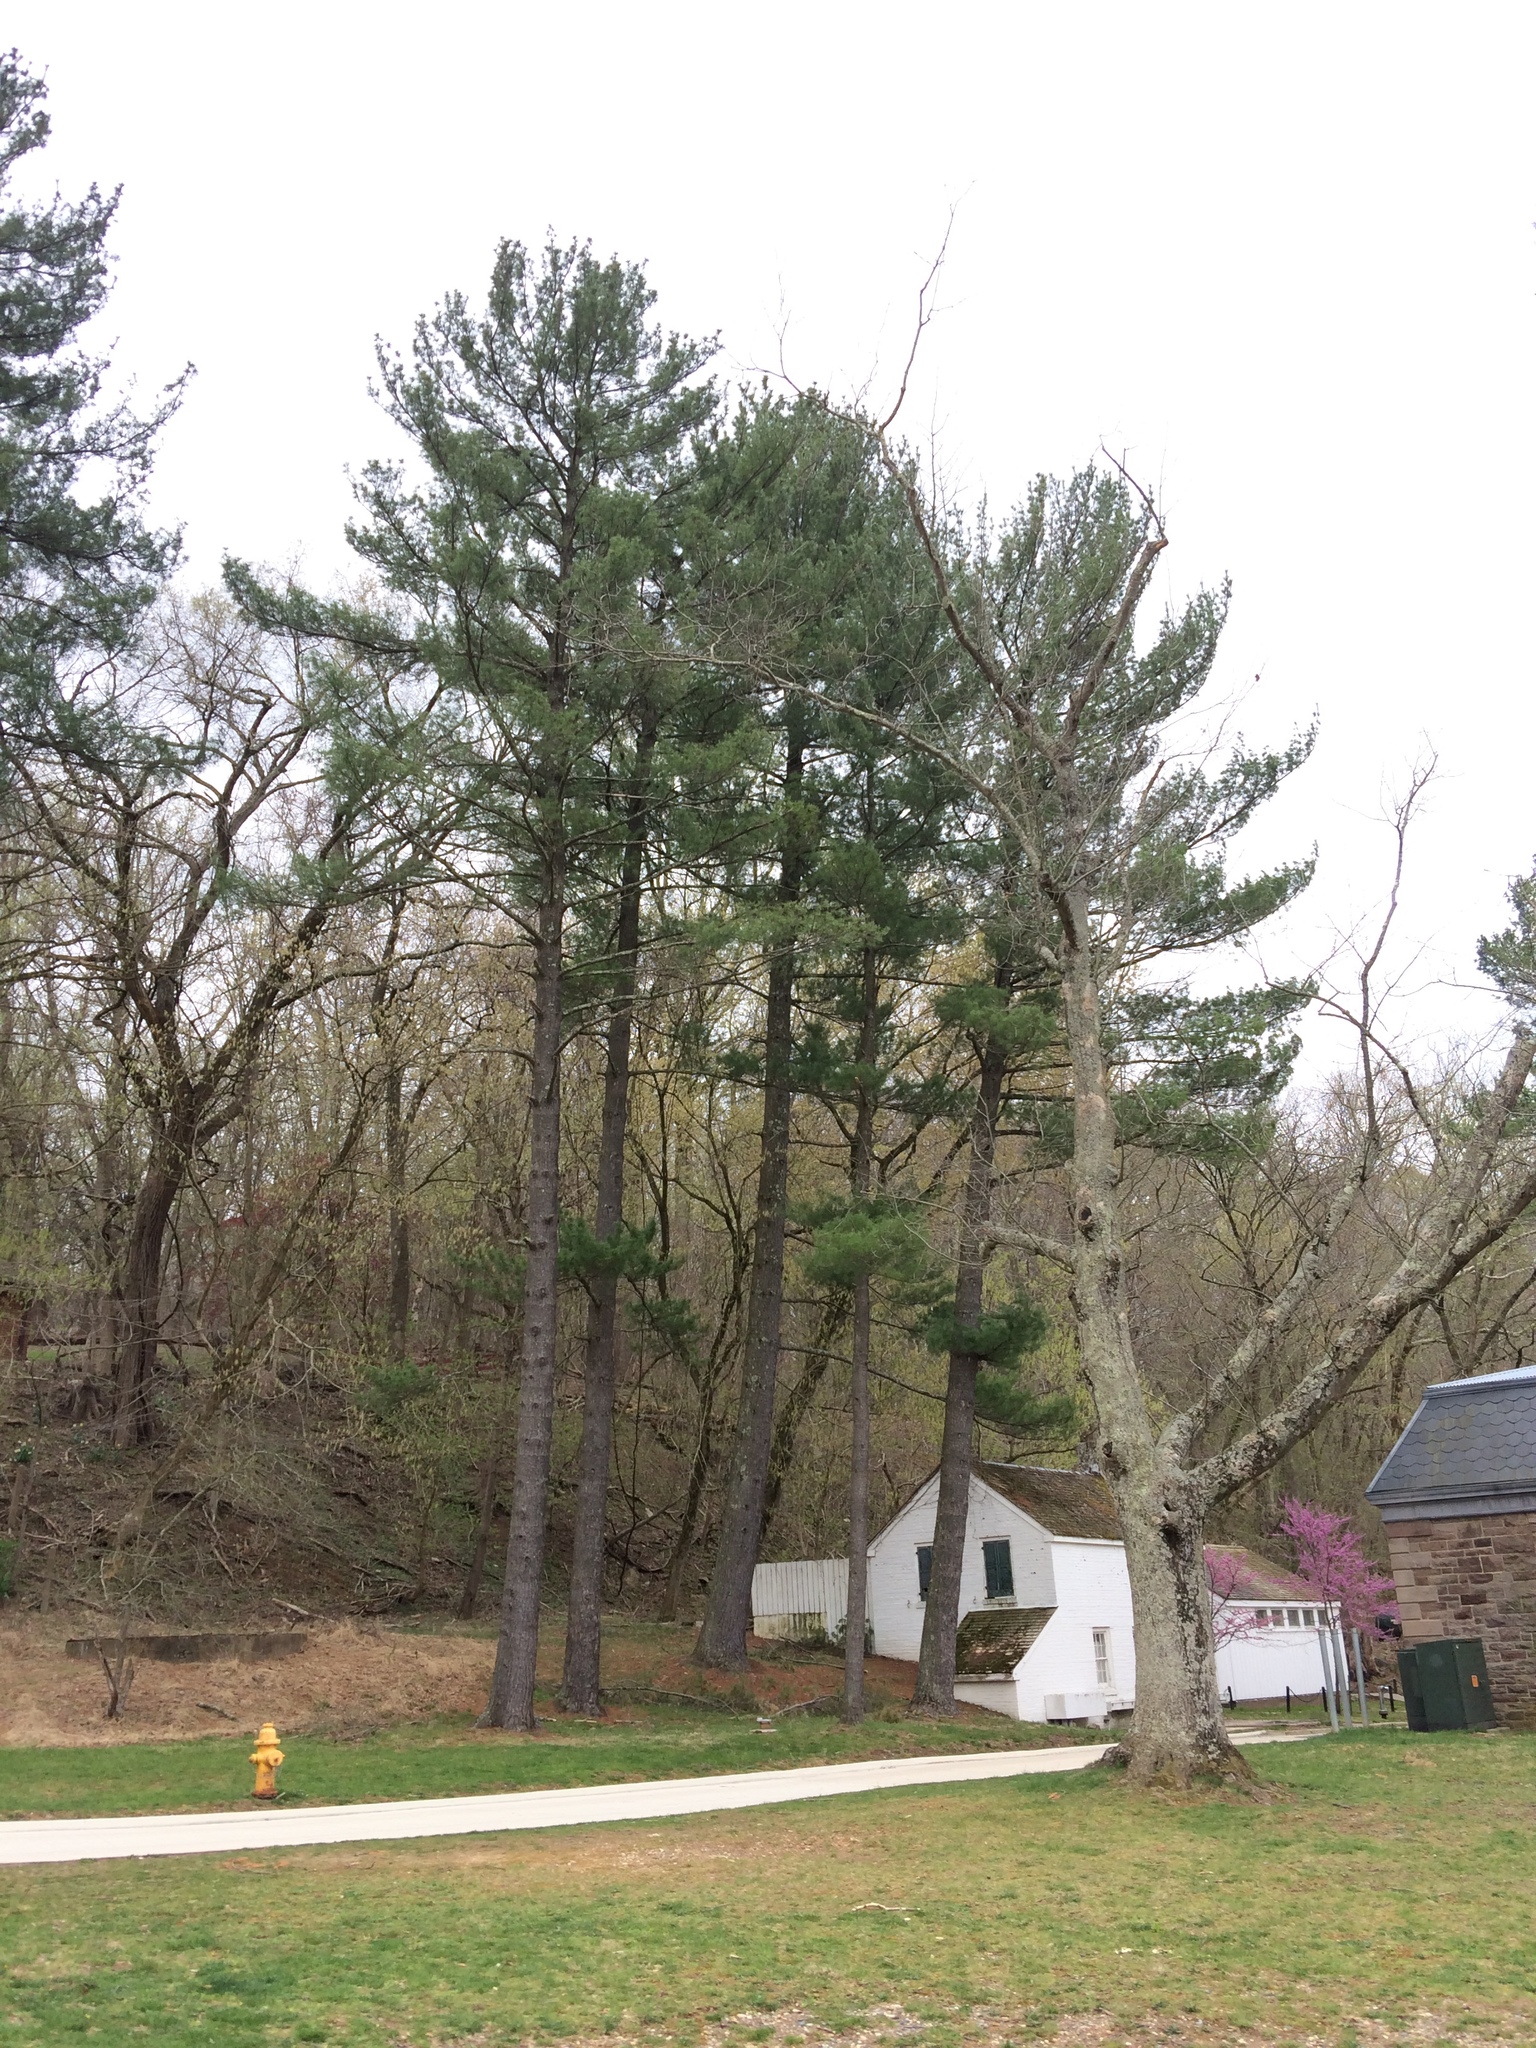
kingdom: Plantae
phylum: Tracheophyta
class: Pinopsida
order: Pinales
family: Pinaceae
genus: Pinus
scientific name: Pinus strobus
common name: Weymouth pine
